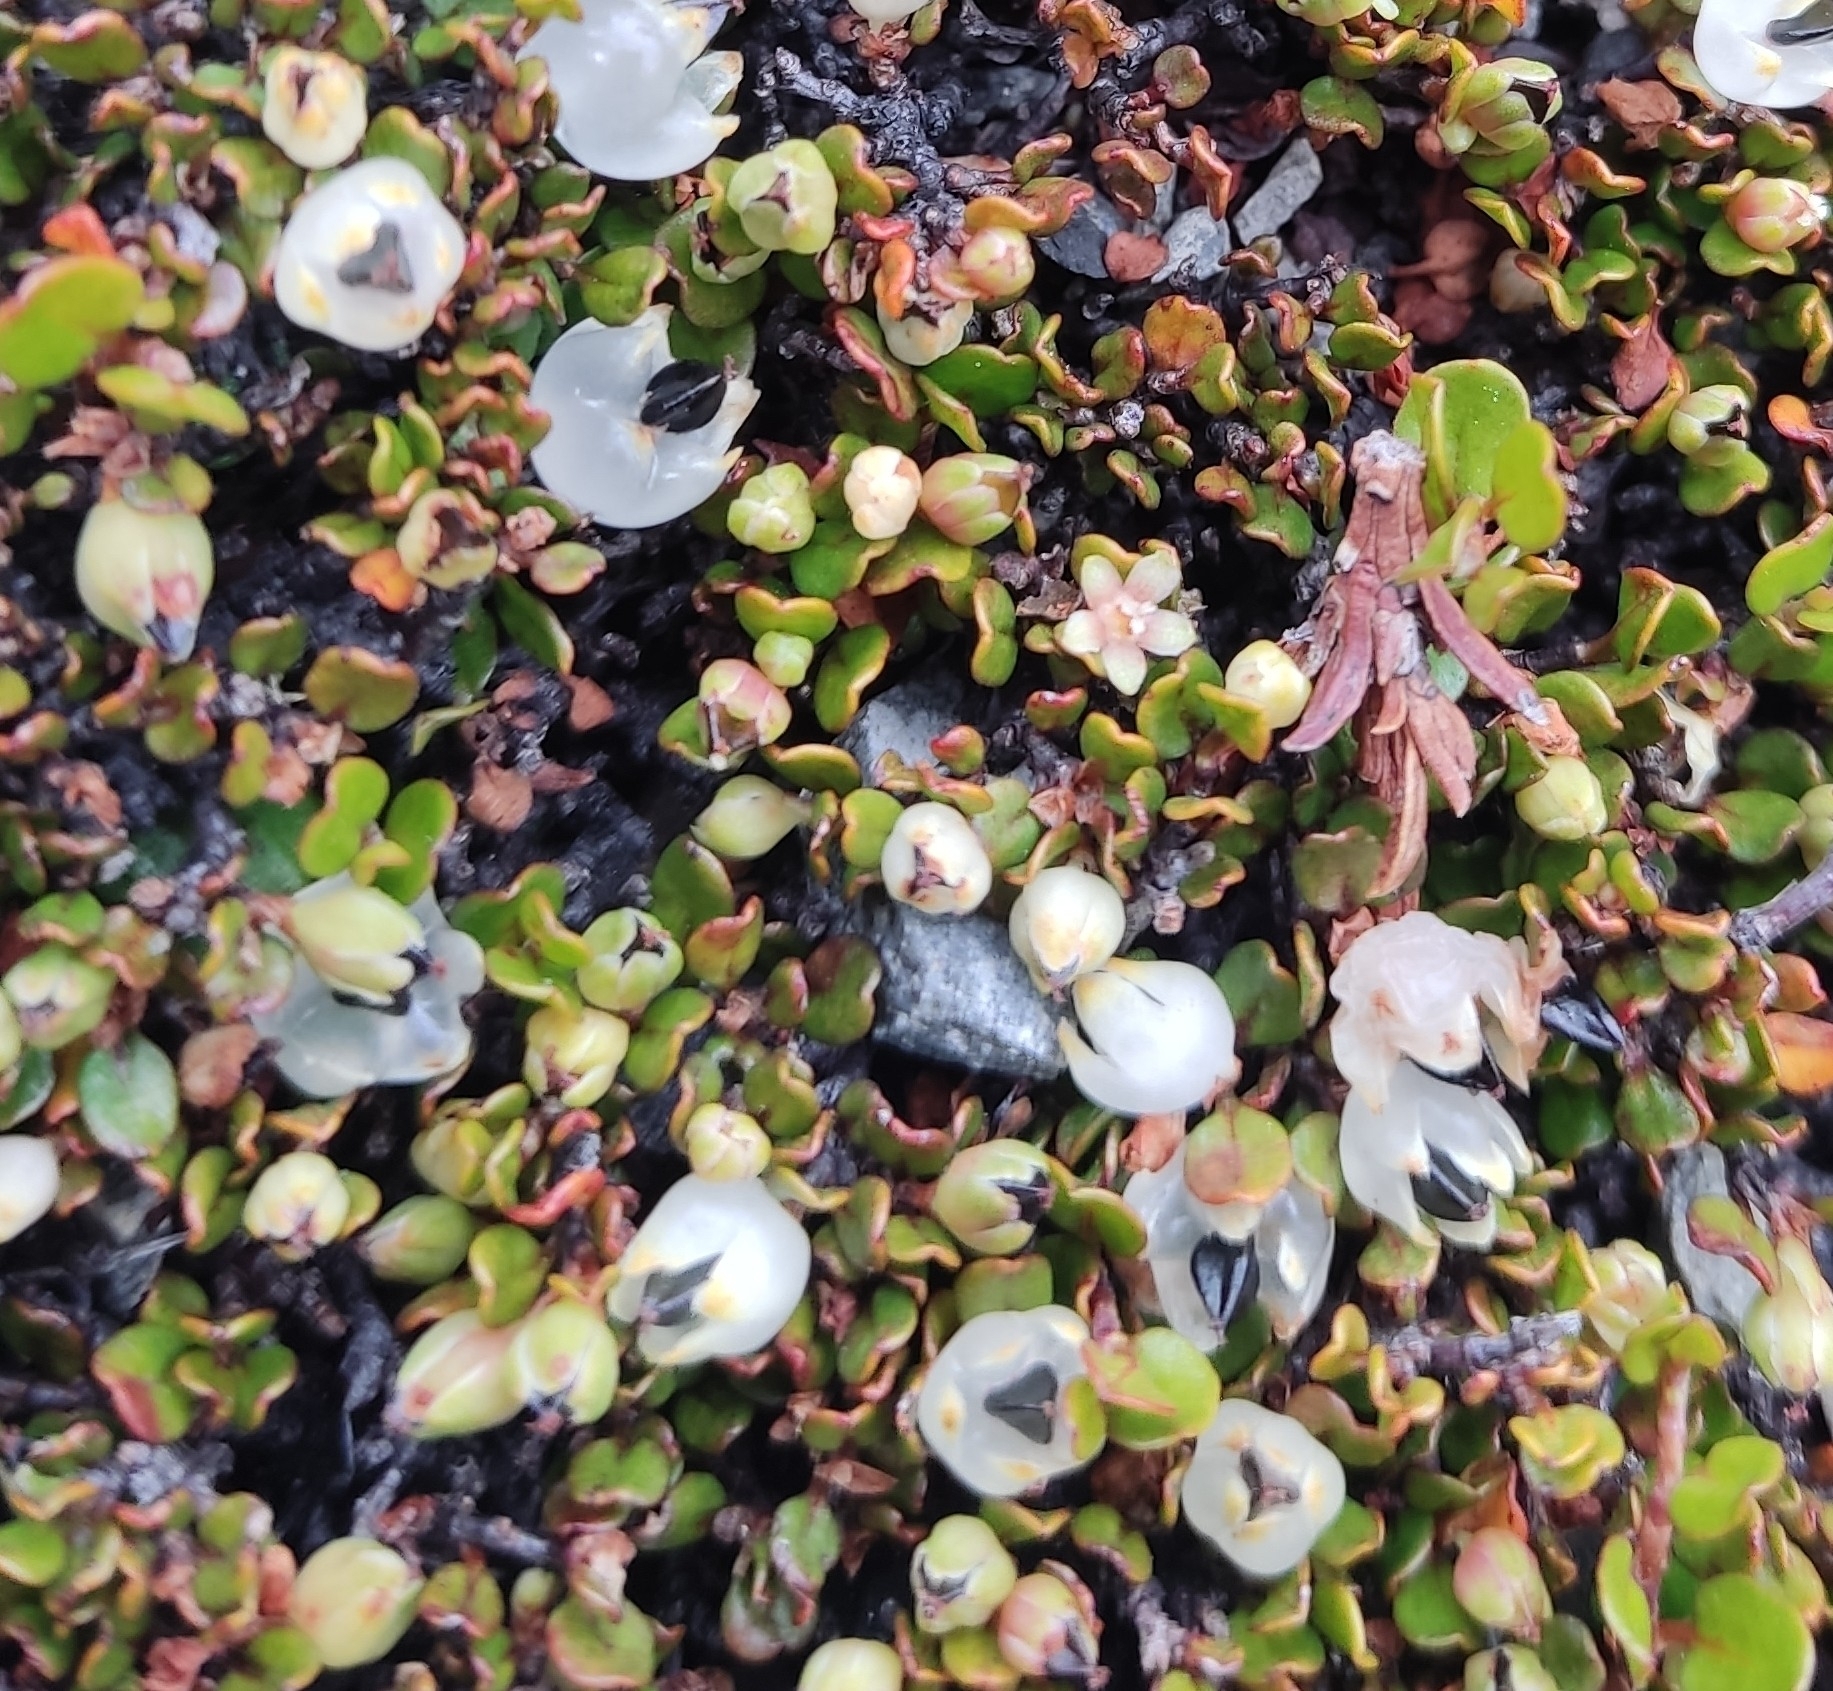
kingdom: Plantae
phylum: Tracheophyta
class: Magnoliopsida
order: Caryophyllales
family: Polygonaceae
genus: Muehlenbeckia
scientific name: Muehlenbeckia axillaris
